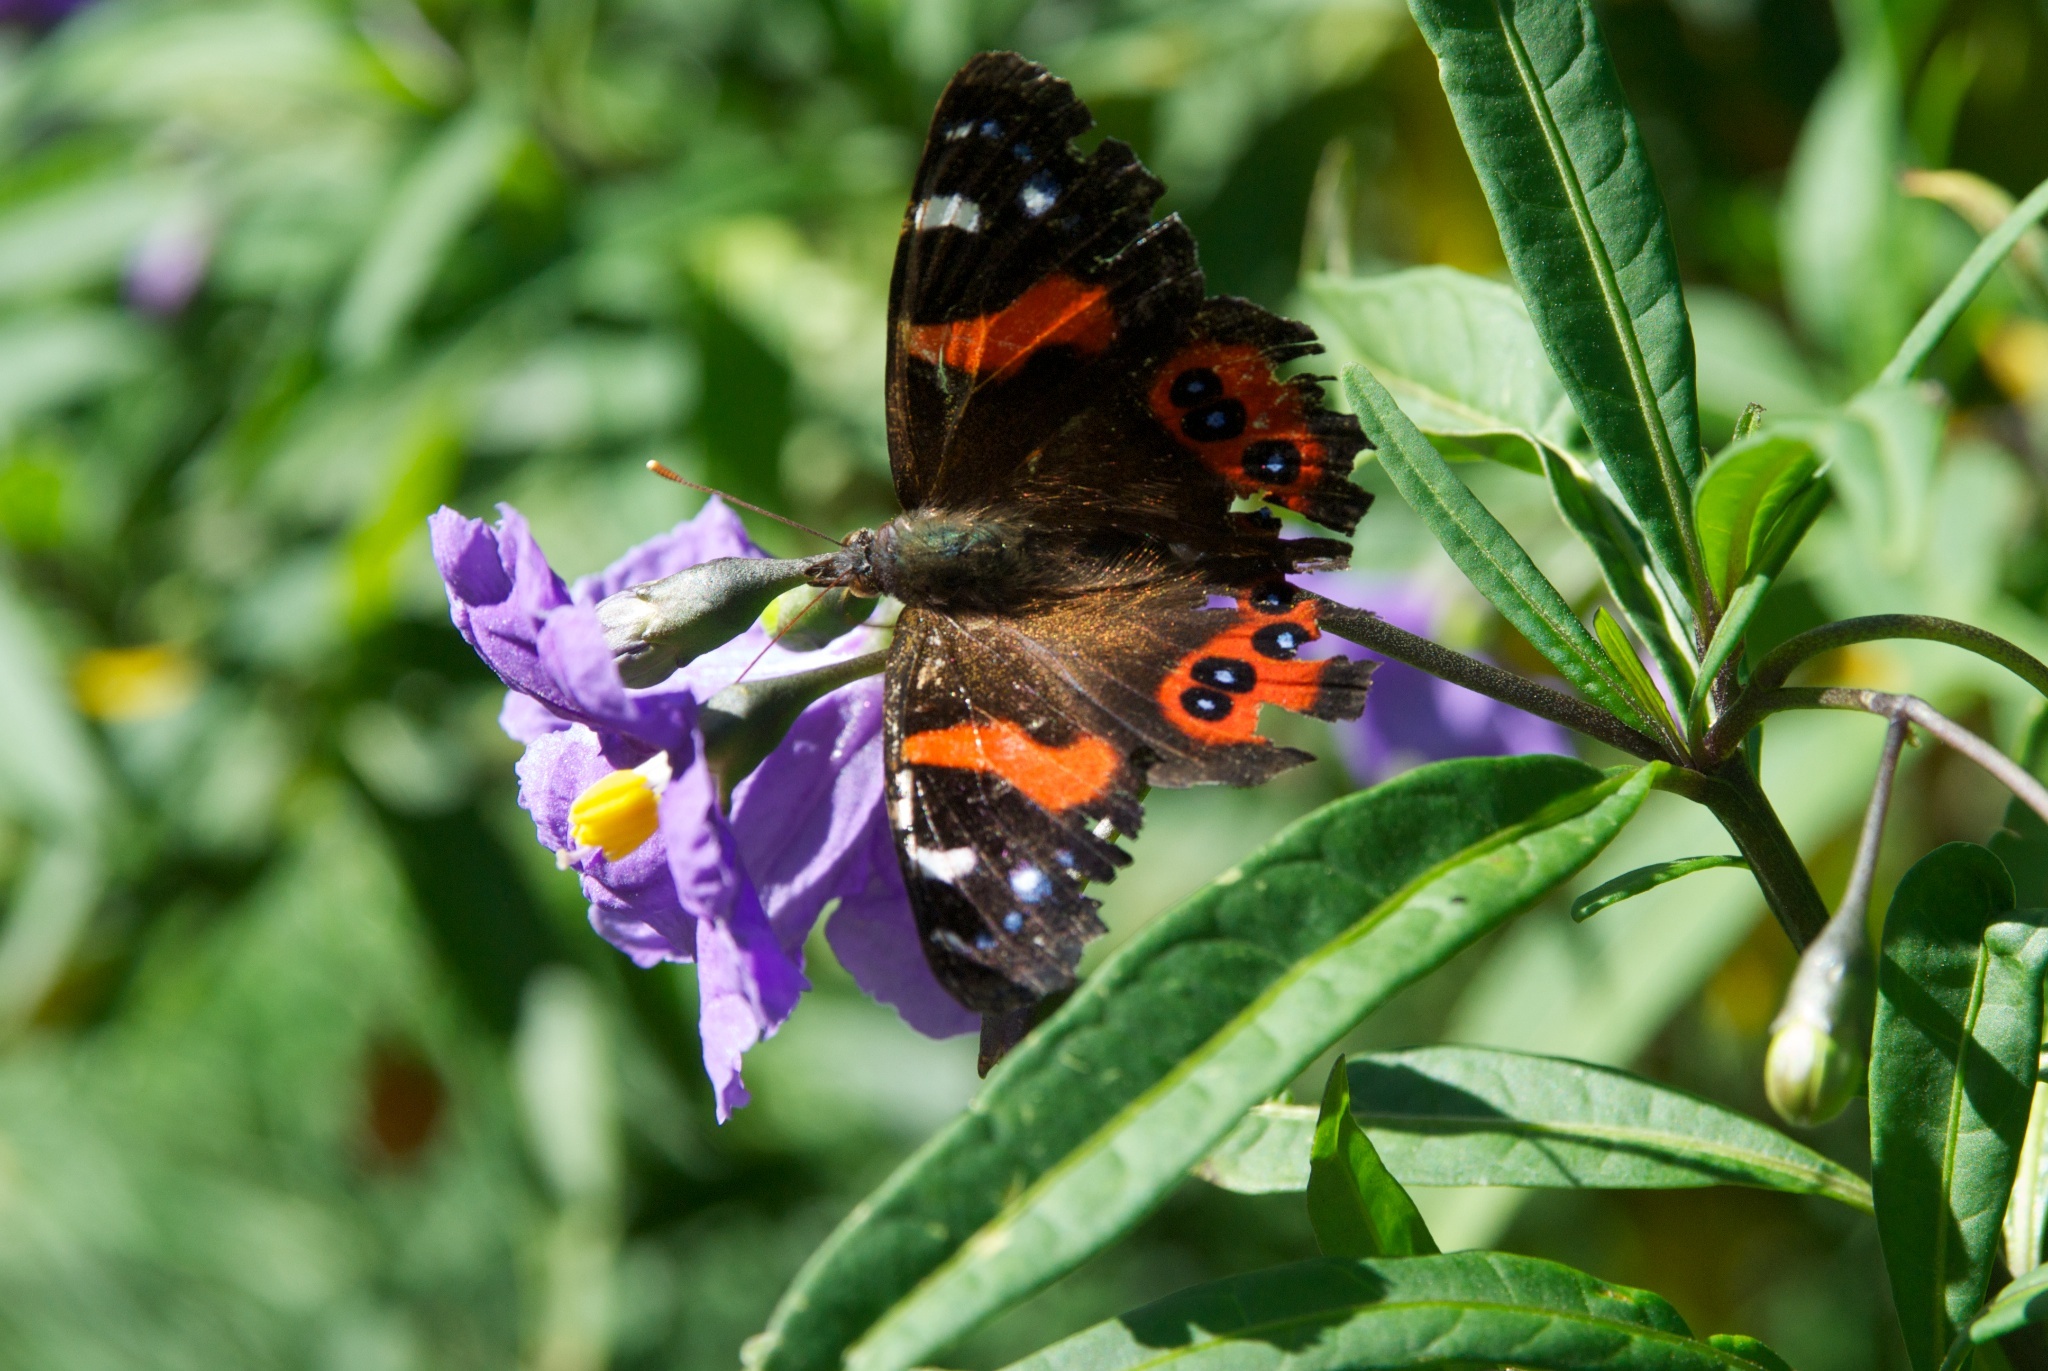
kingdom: Animalia
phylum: Arthropoda
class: Insecta
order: Lepidoptera
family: Nymphalidae
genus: Vanessa
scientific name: Vanessa gonerilla
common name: New zealand red admiral
